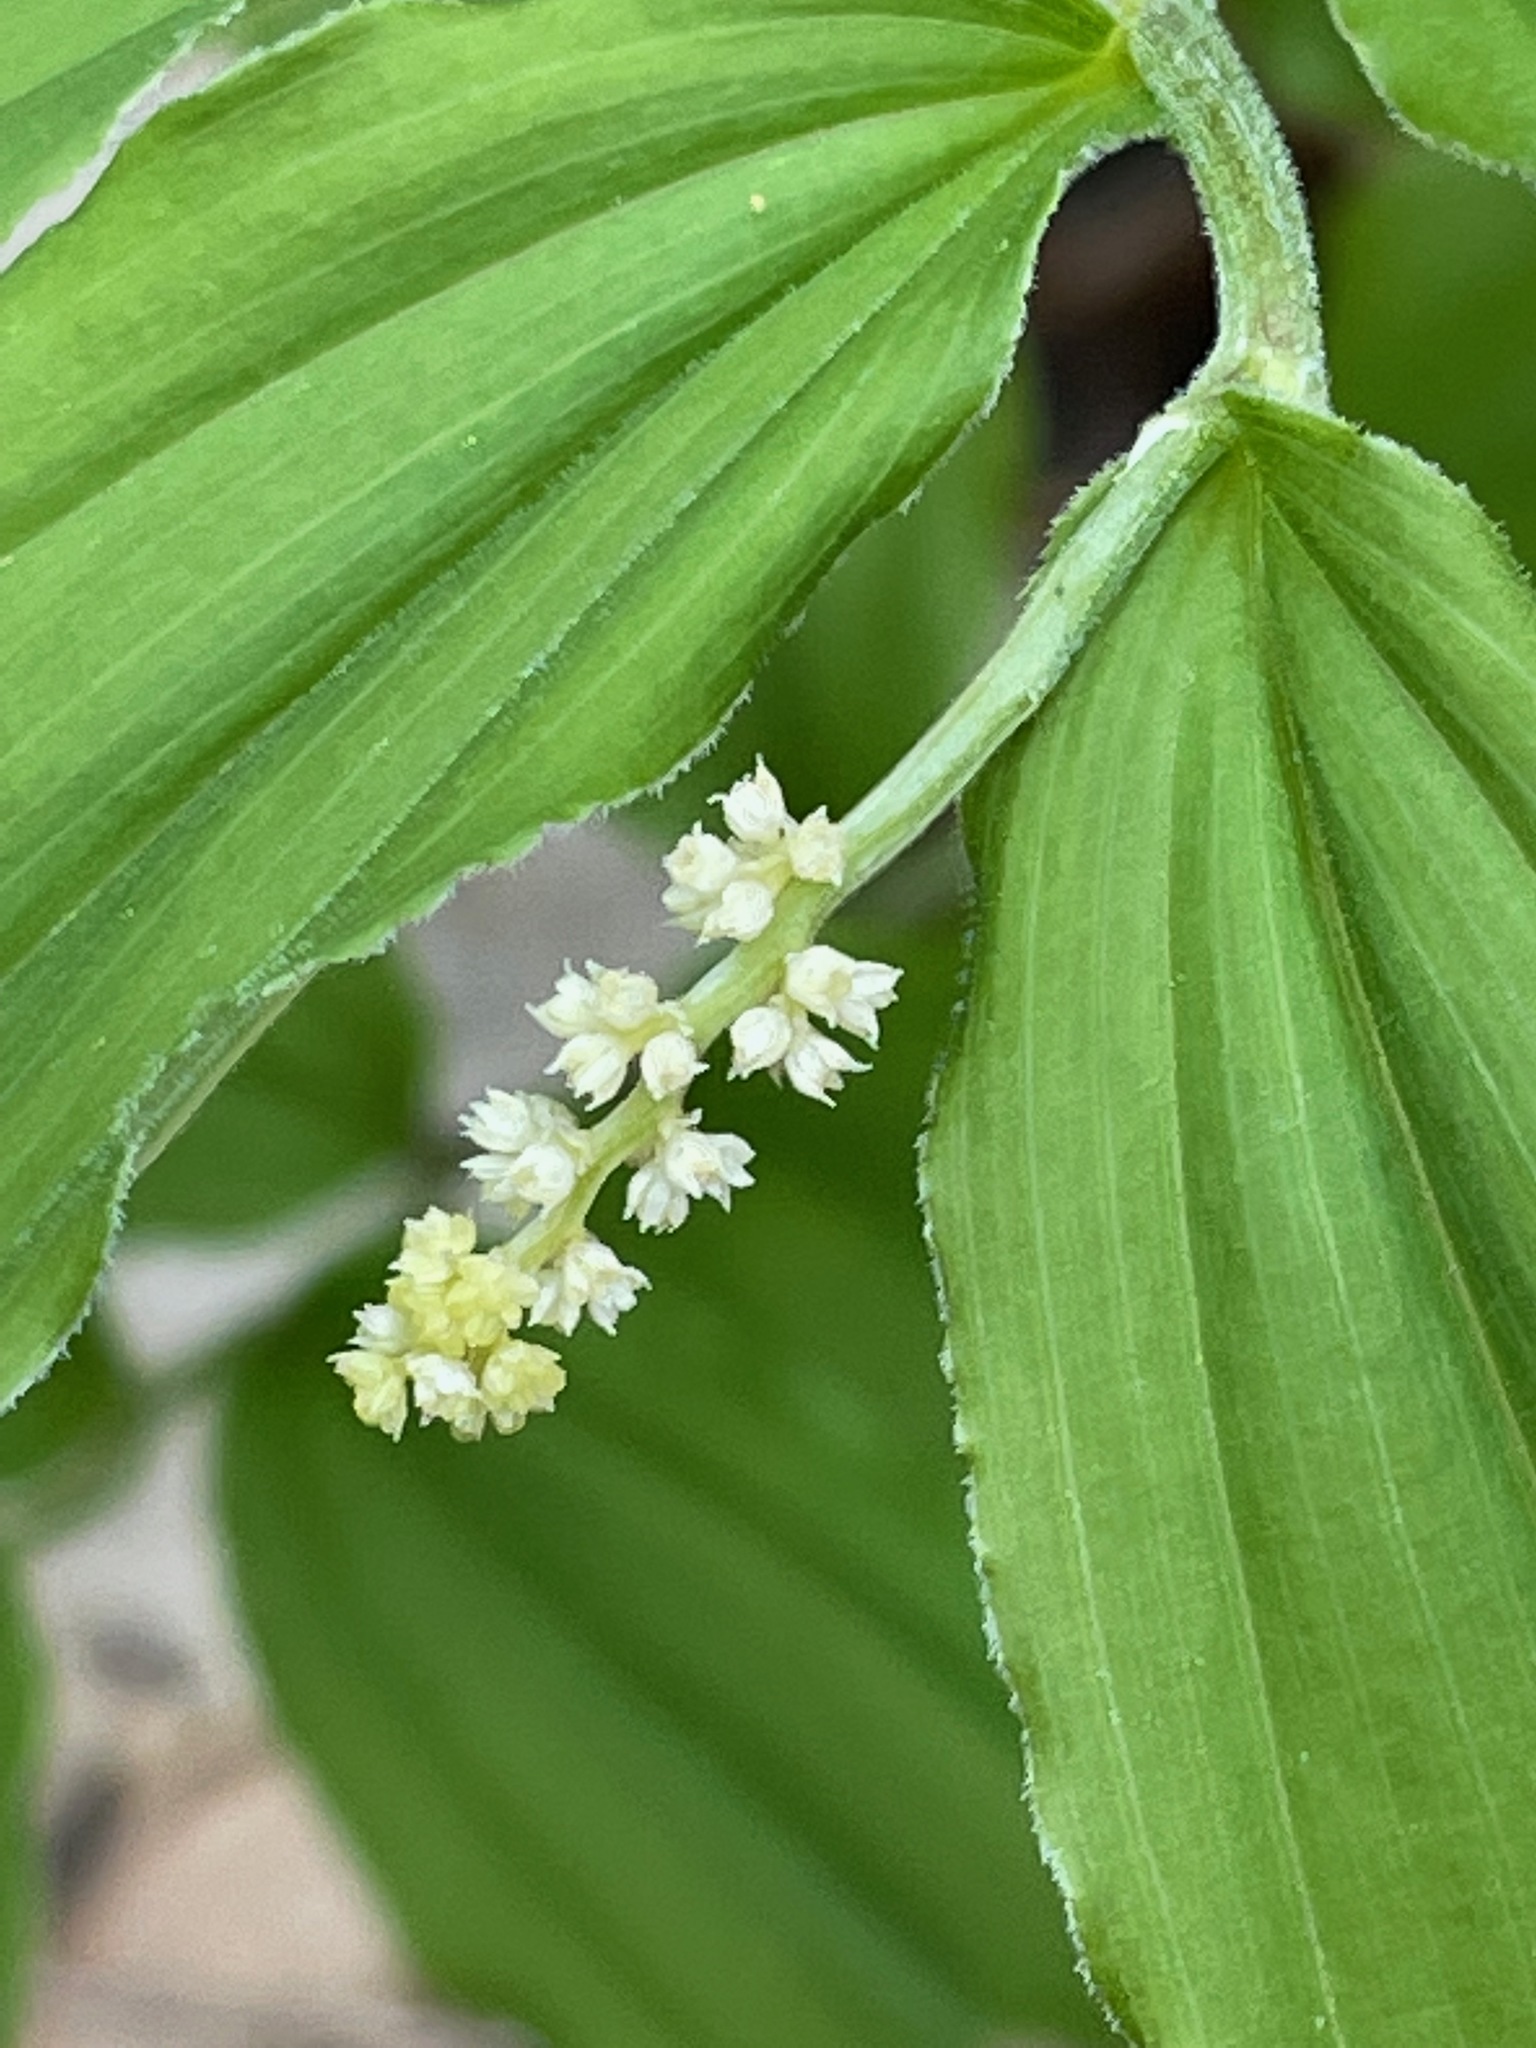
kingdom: Plantae
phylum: Tracheophyta
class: Liliopsida
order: Asparagales
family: Asparagaceae
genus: Maianthemum
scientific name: Maianthemum racemosum
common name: False spikenard
